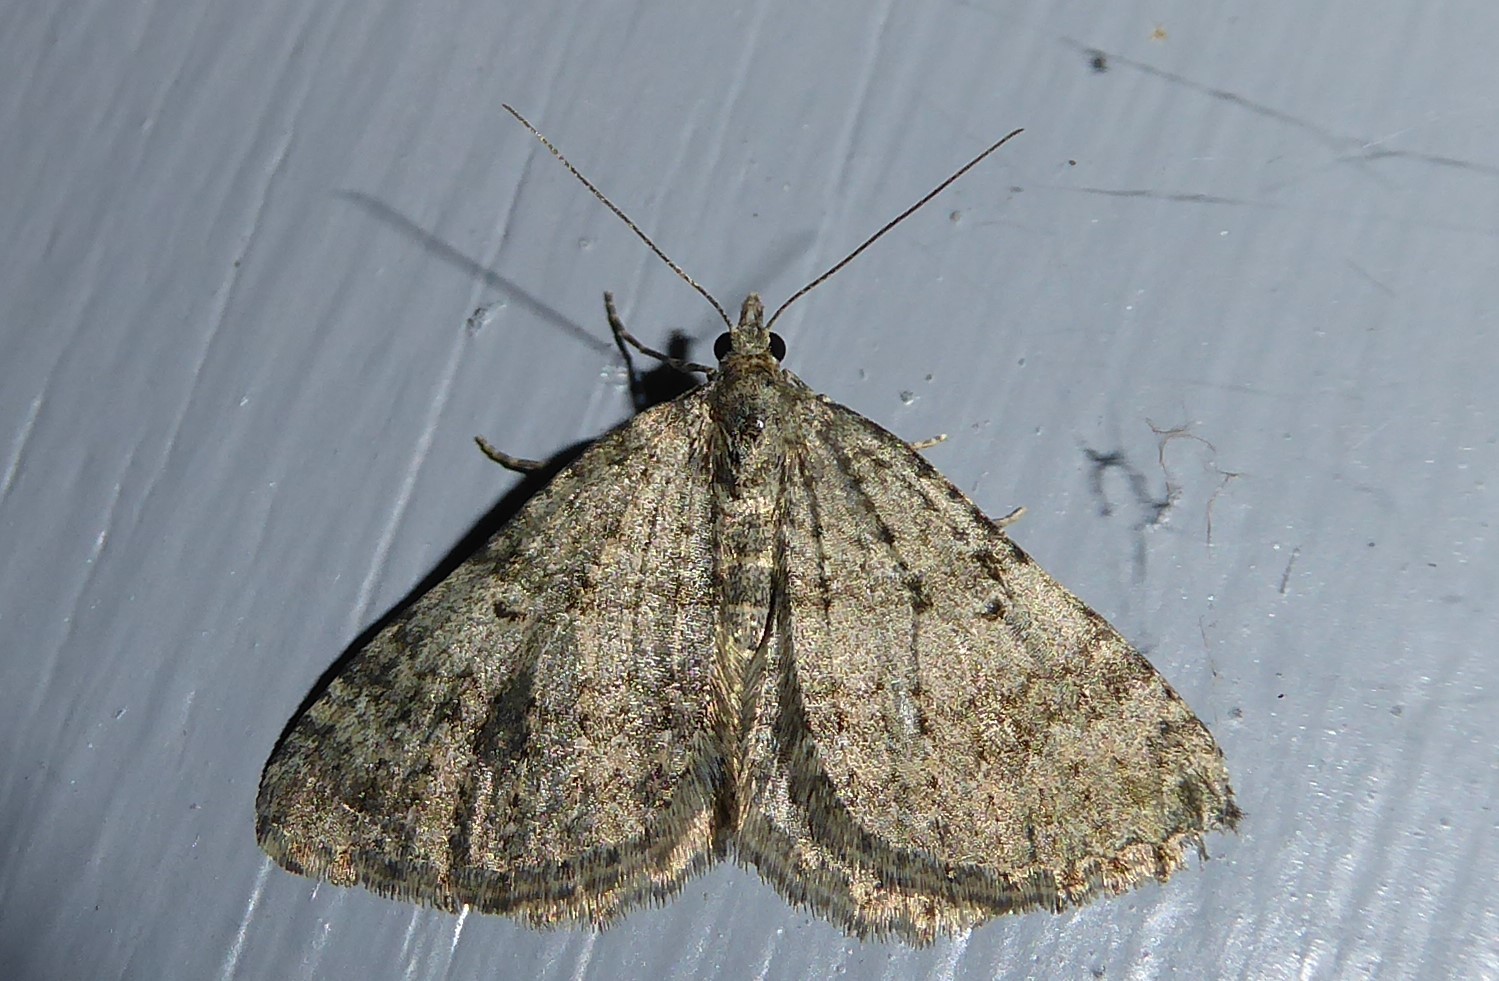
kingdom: Animalia
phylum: Arthropoda
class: Insecta
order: Lepidoptera
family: Geometridae
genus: Helastia
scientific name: Helastia corcularia
